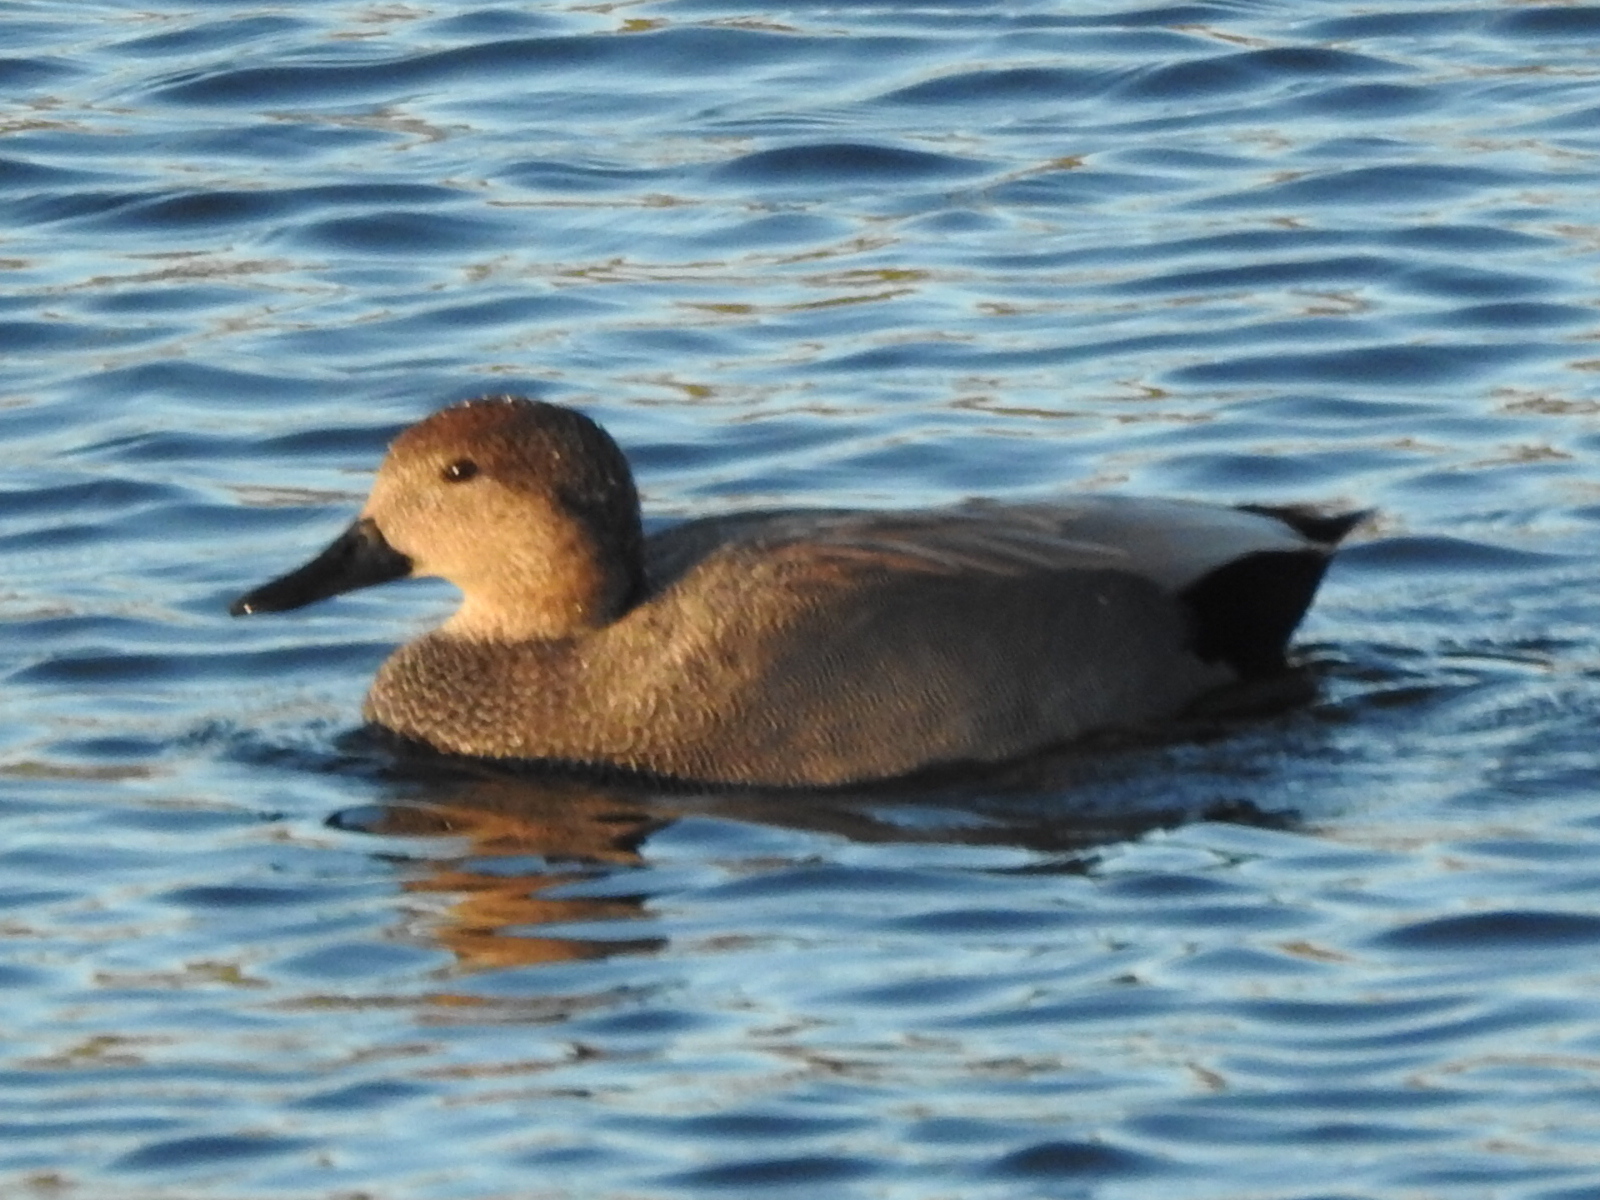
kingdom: Animalia
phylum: Chordata
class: Aves
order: Anseriformes
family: Anatidae
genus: Mareca
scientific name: Mareca strepera
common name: Gadwall
